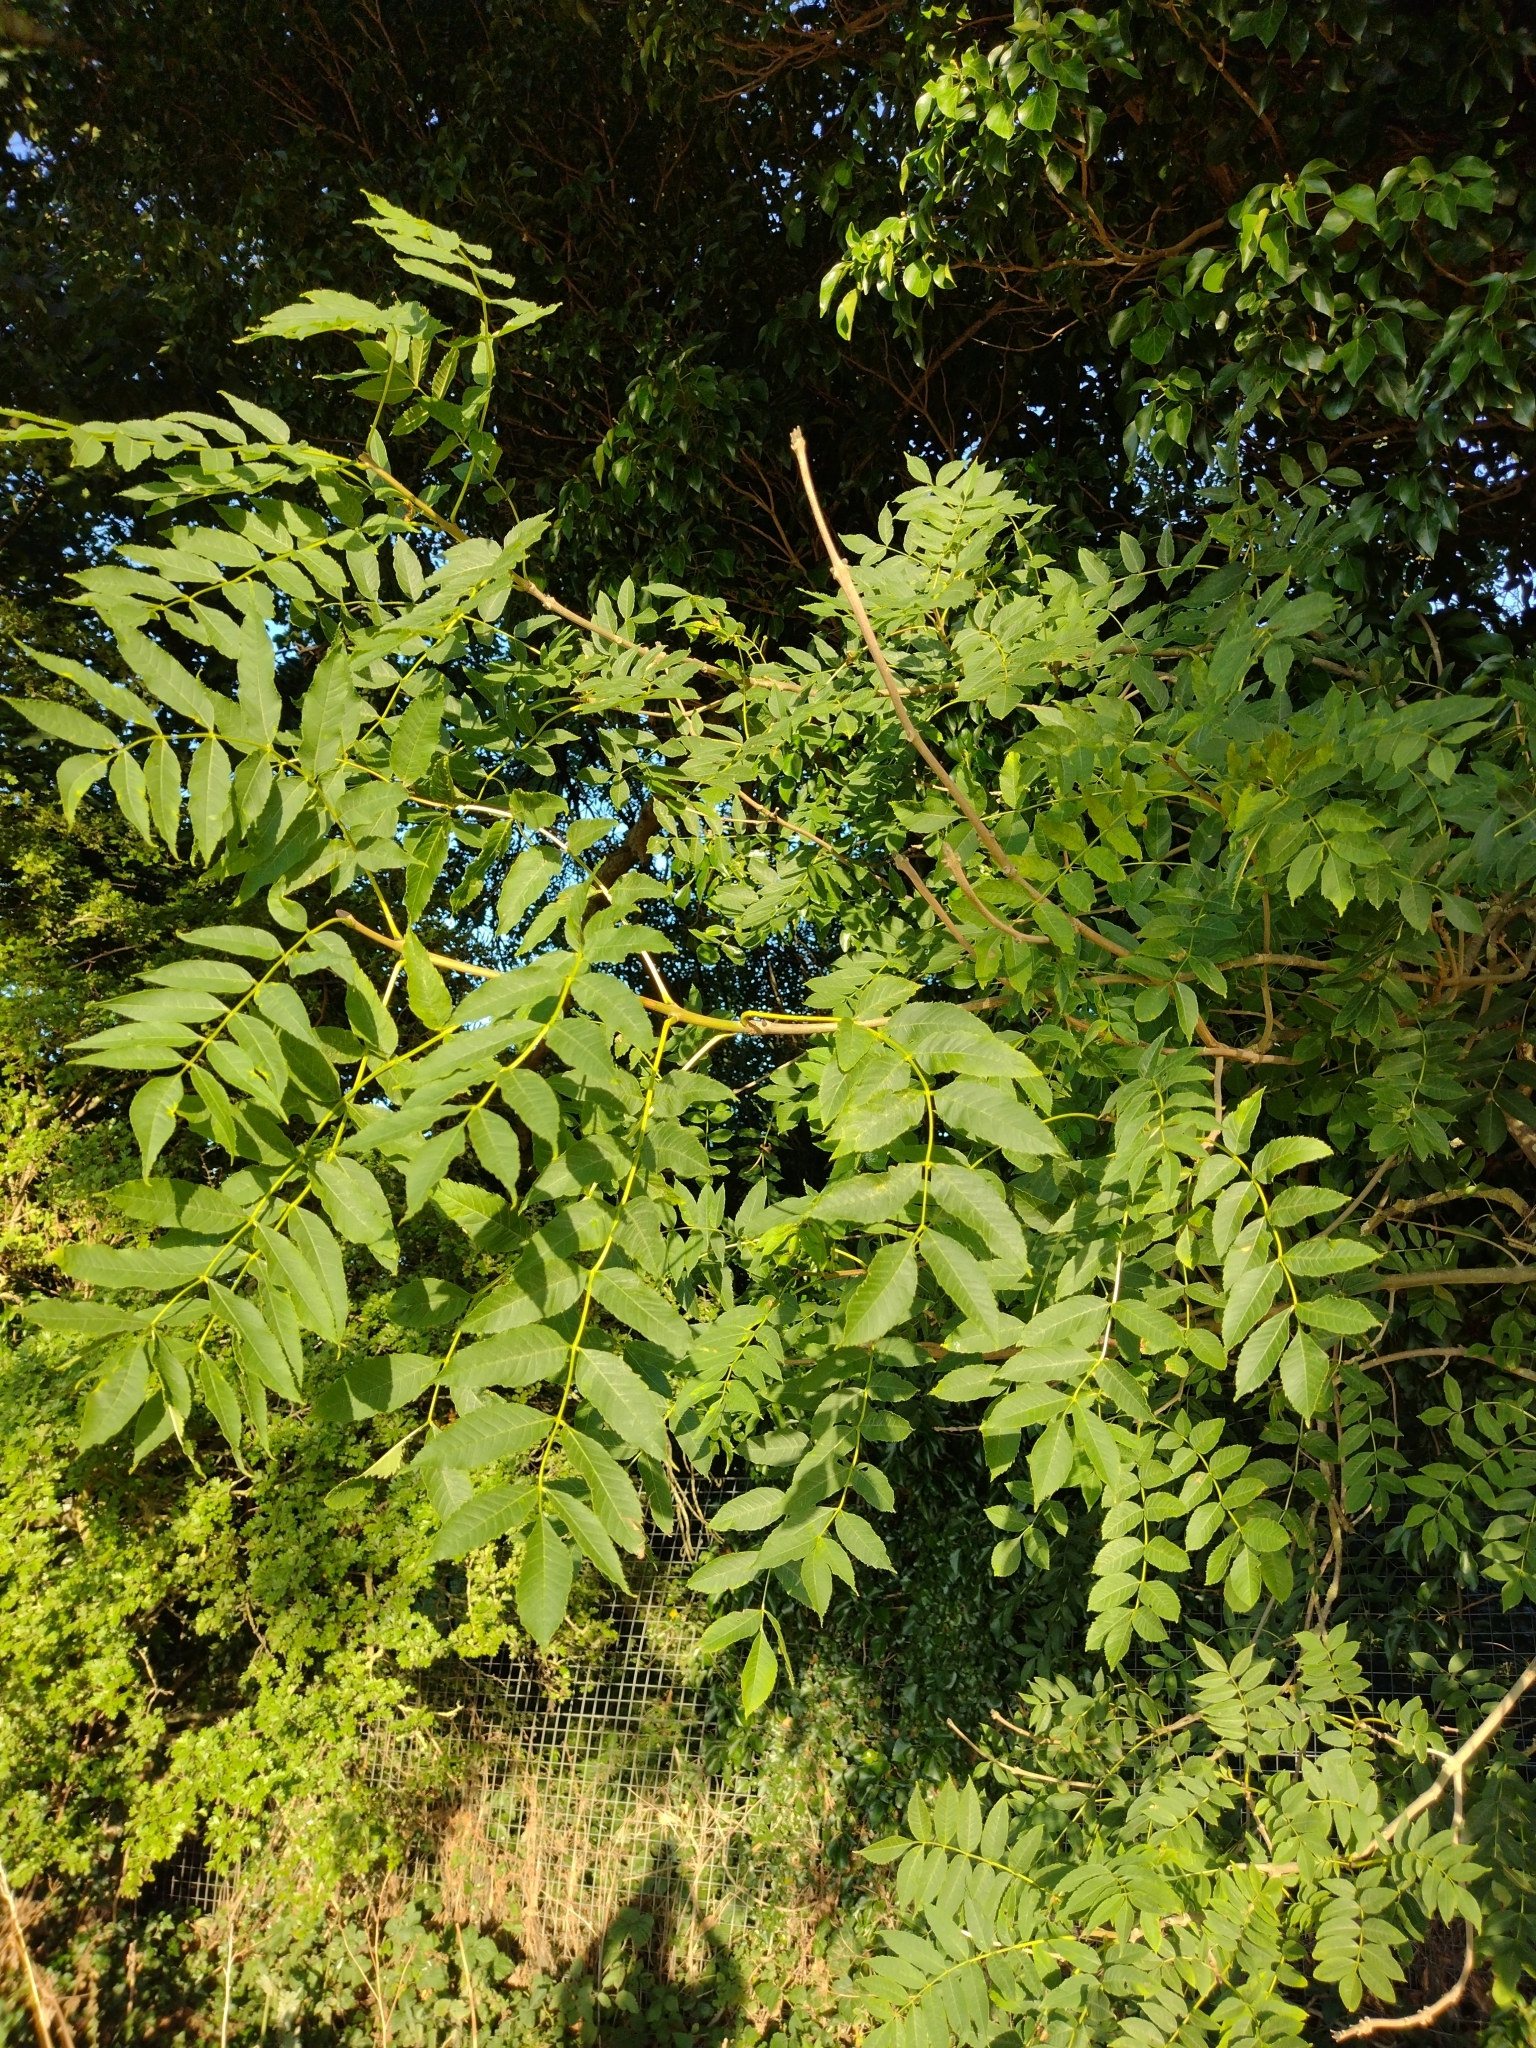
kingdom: Plantae
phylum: Tracheophyta
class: Magnoliopsida
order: Lamiales
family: Oleaceae
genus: Fraxinus
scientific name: Fraxinus excelsior
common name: European ash
